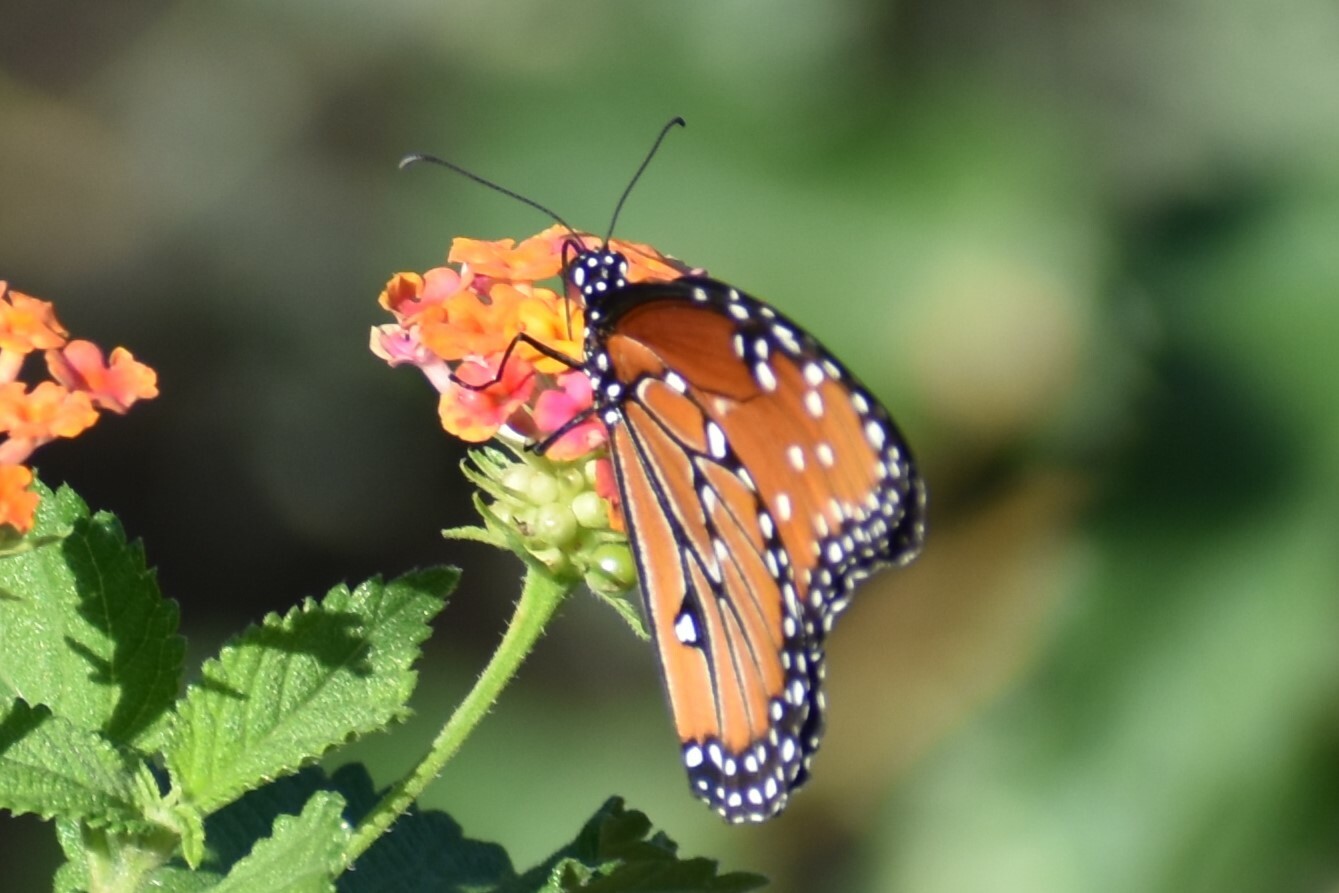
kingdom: Animalia
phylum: Arthropoda
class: Insecta
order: Lepidoptera
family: Nymphalidae
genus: Danaus
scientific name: Danaus gilippus
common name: Queen
